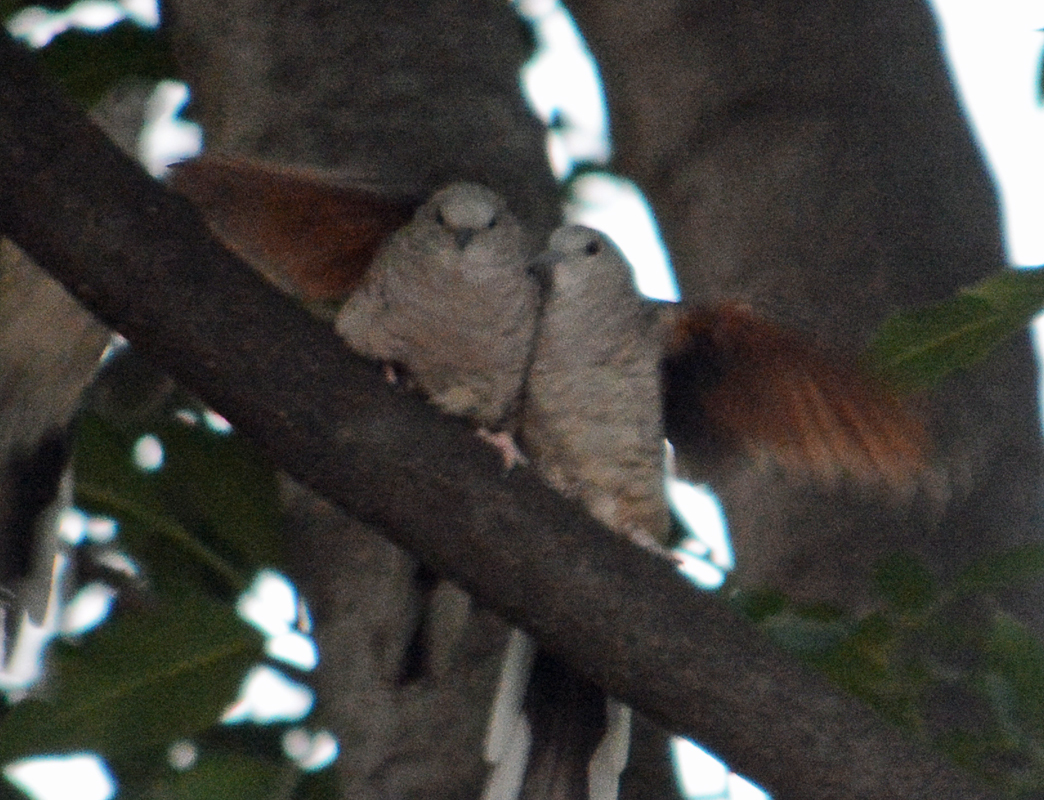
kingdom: Animalia
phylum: Chordata
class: Aves
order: Columbiformes
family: Columbidae
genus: Columbina
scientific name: Columbina inca
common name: Inca dove
